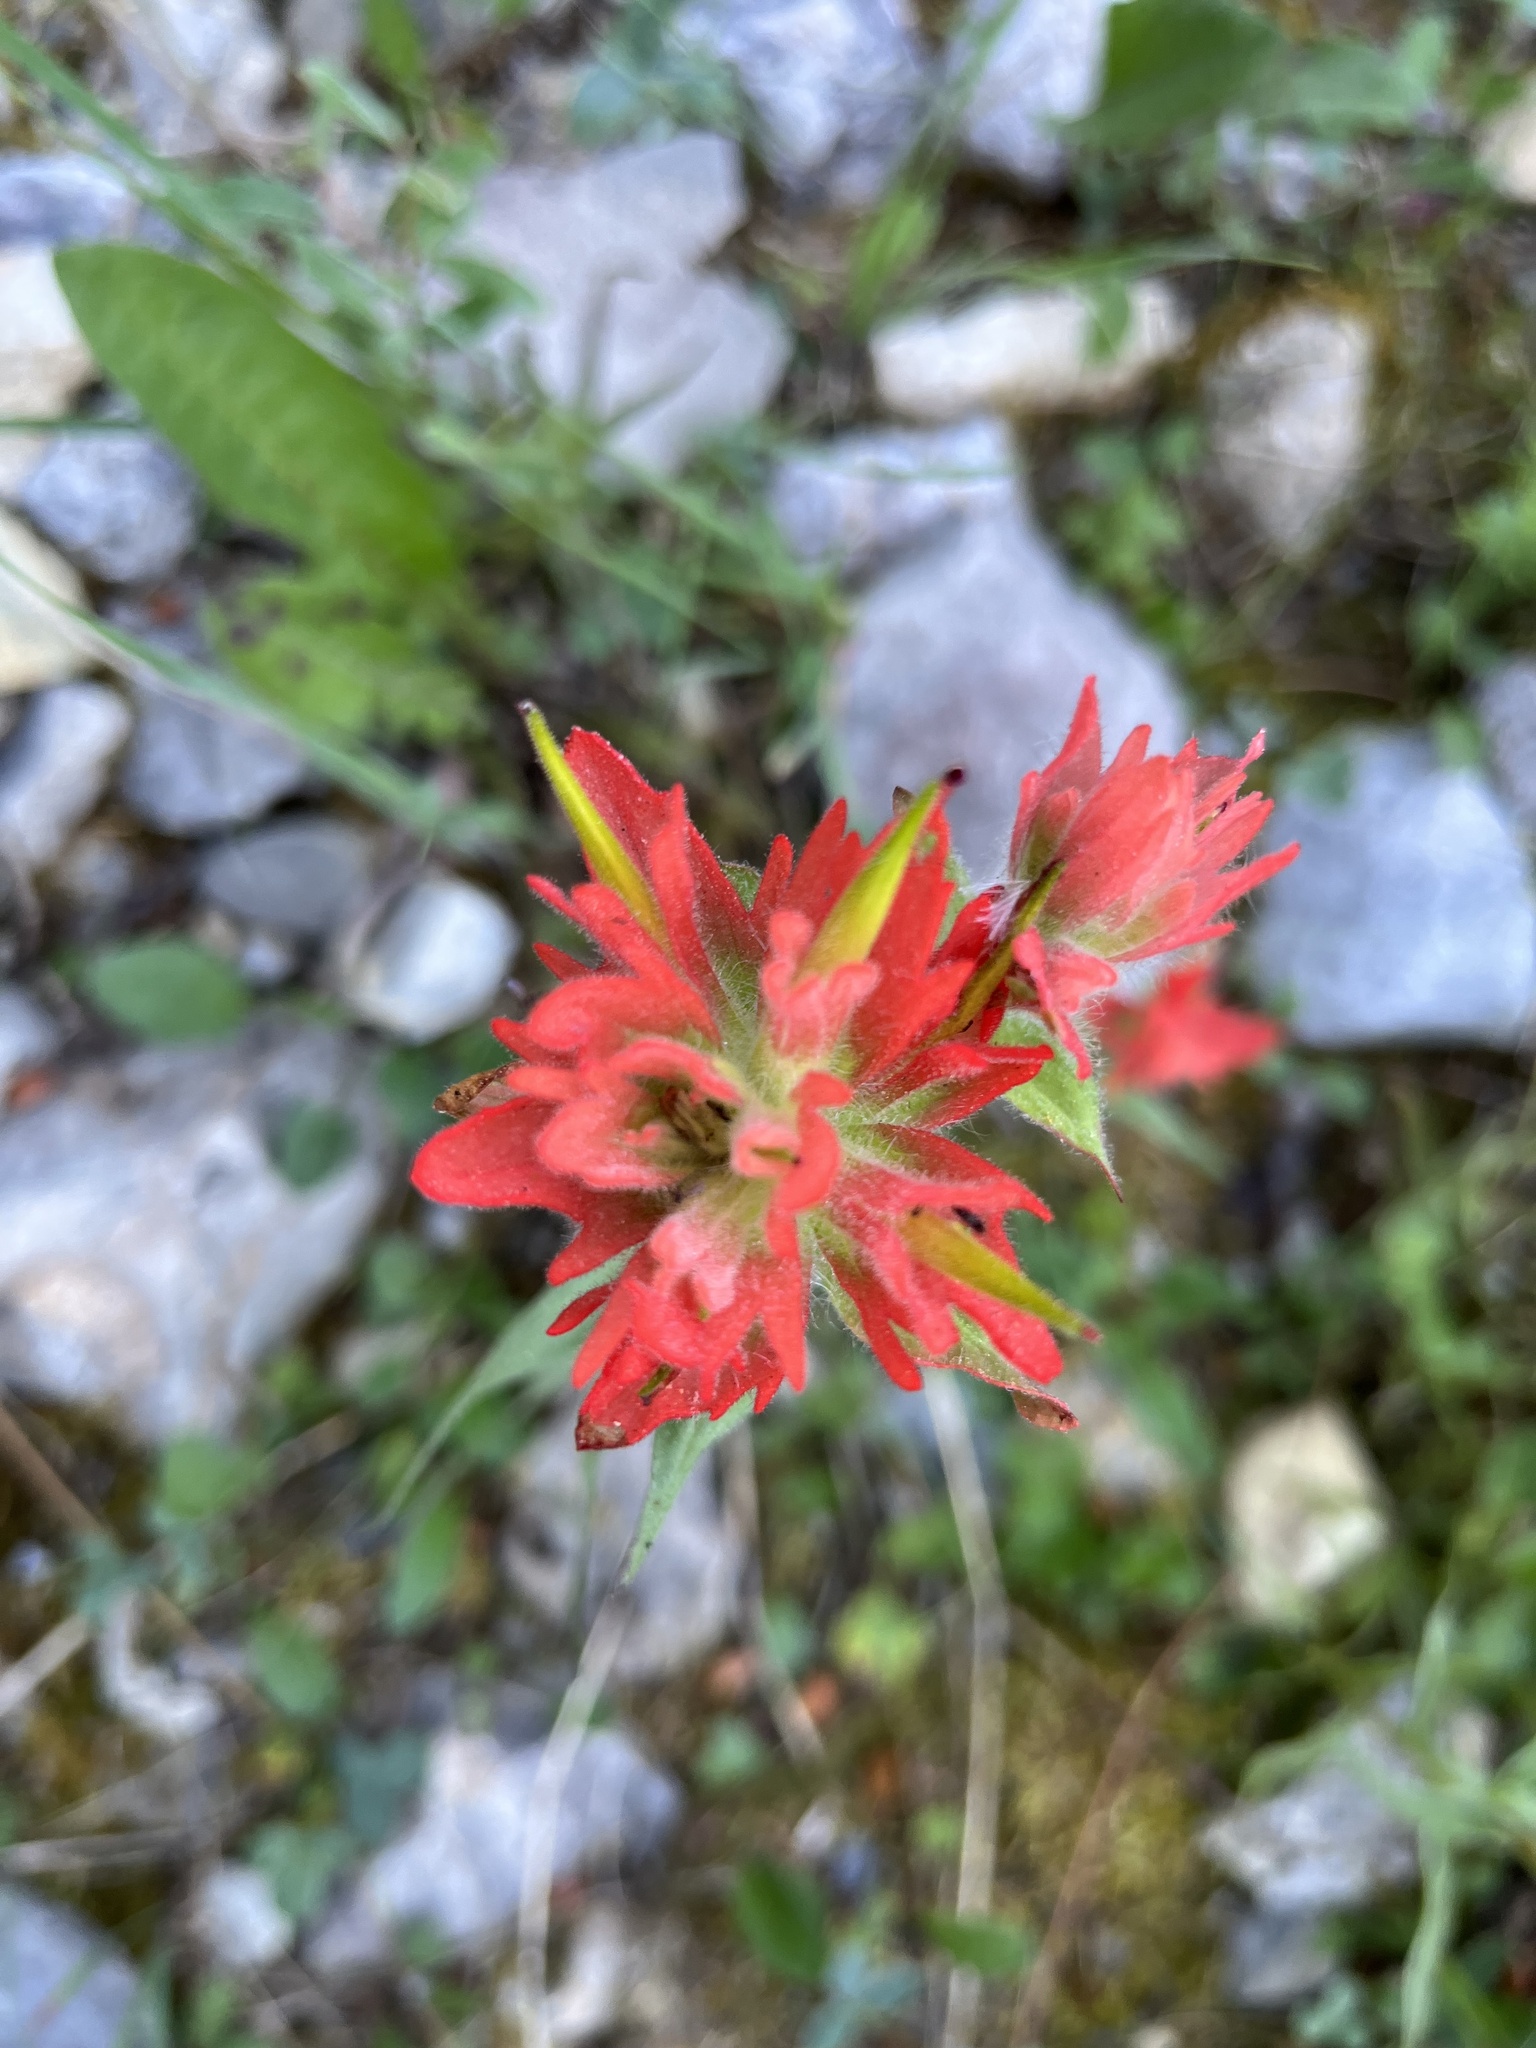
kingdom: Plantae
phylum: Tracheophyta
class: Magnoliopsida
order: Lamiales
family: Orobanchaceae
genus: Castilleja
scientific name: Castilleja miniata
